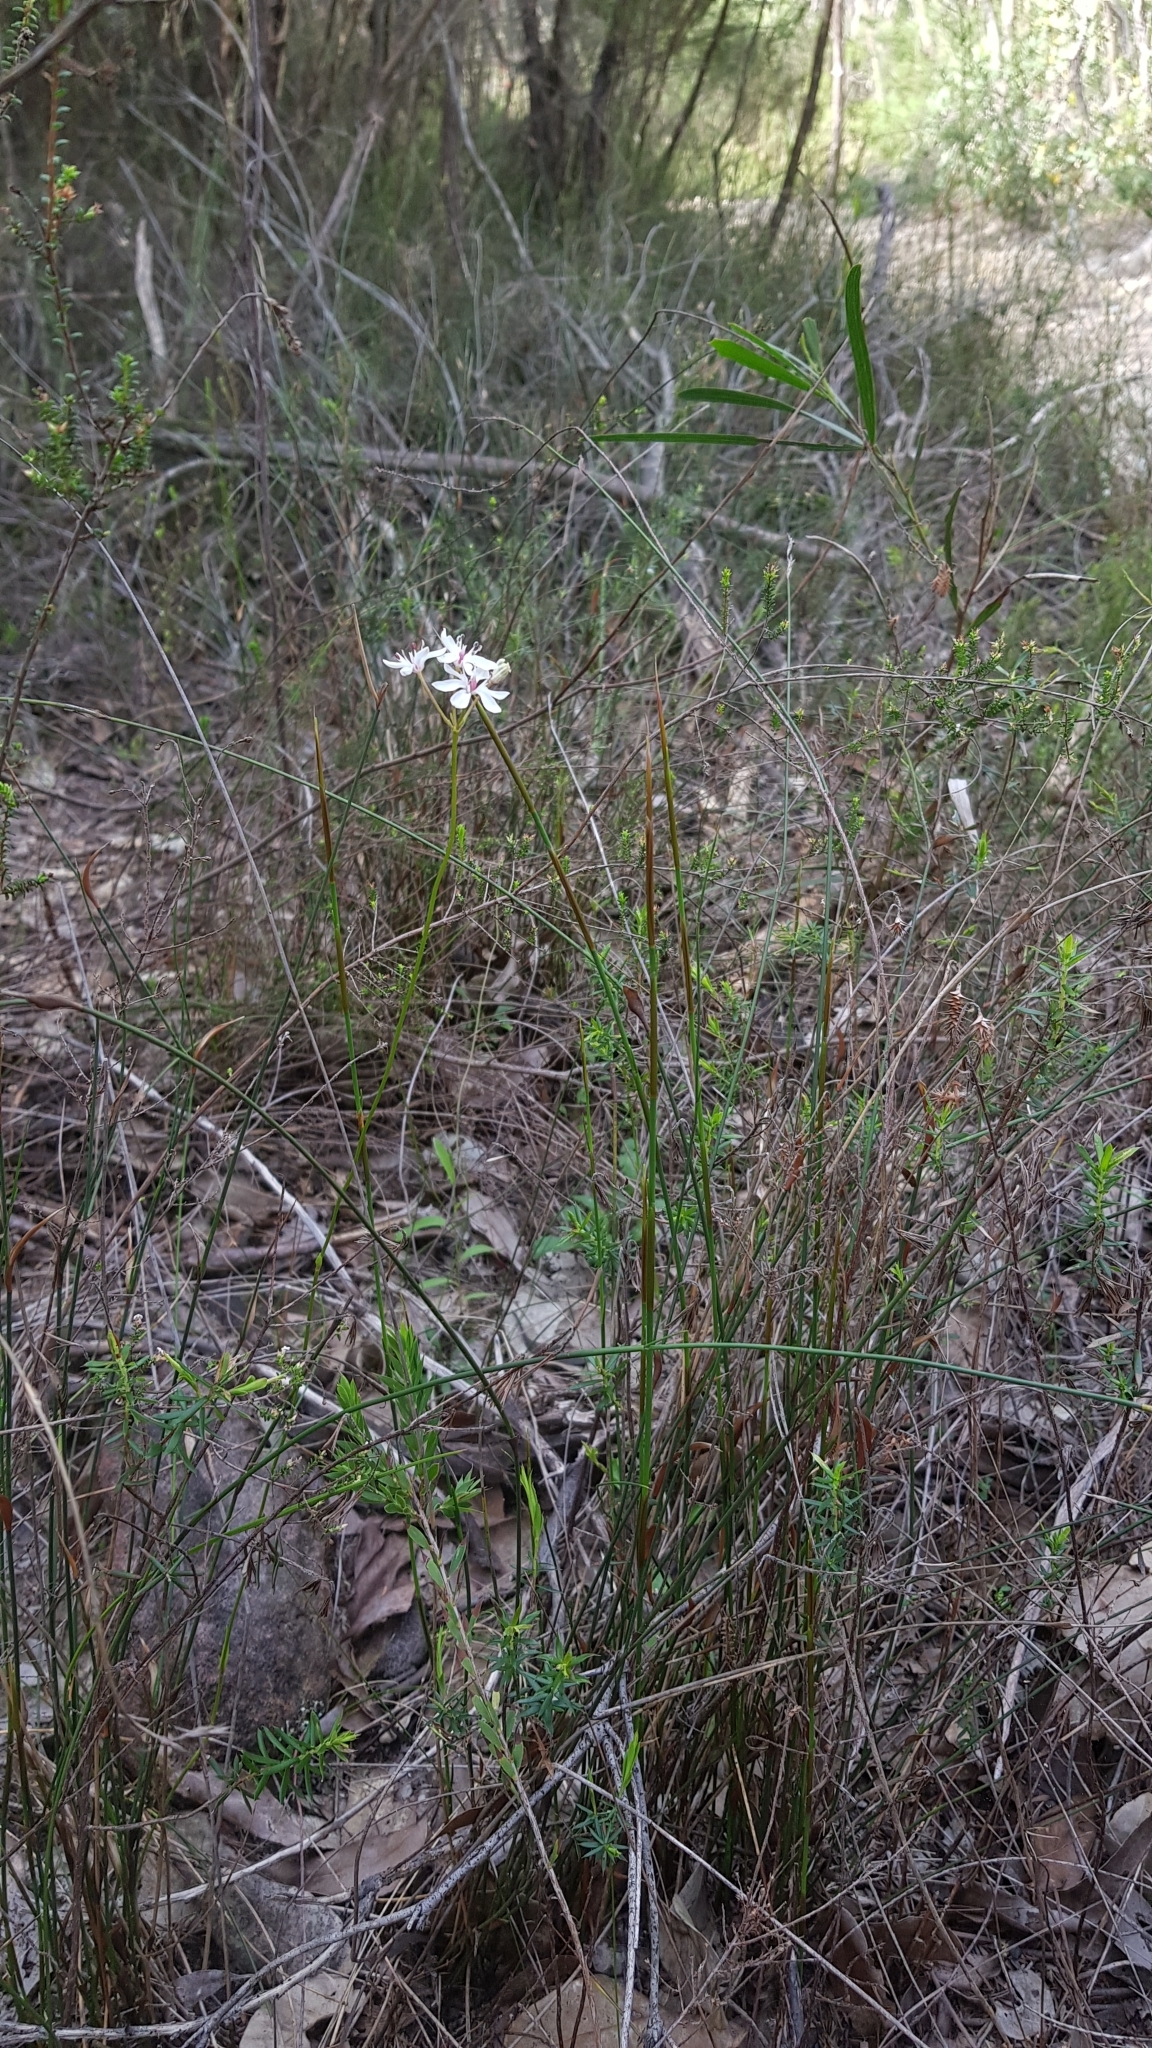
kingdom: Plantae
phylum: Tracheophyta
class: Liliopsida
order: Liliales
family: Colchicaceae
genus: Burchardia
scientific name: Burchardia umbellata
